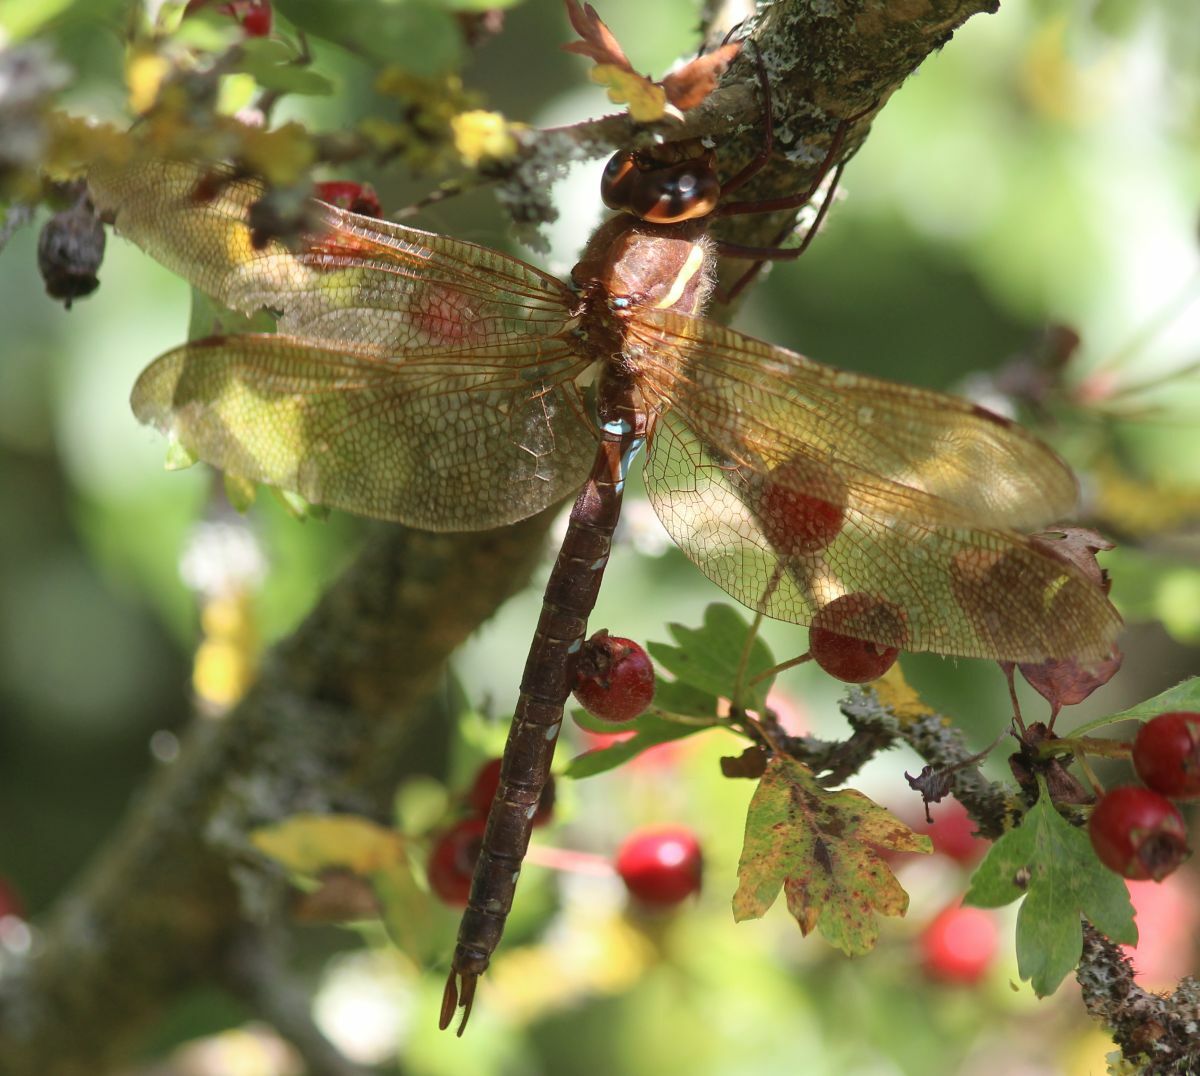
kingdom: Animalia
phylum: Arthropoda
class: Insecta
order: Odonata
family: Aeshnidae
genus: Aeshna
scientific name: Aeshna grandis
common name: Brown hawker
